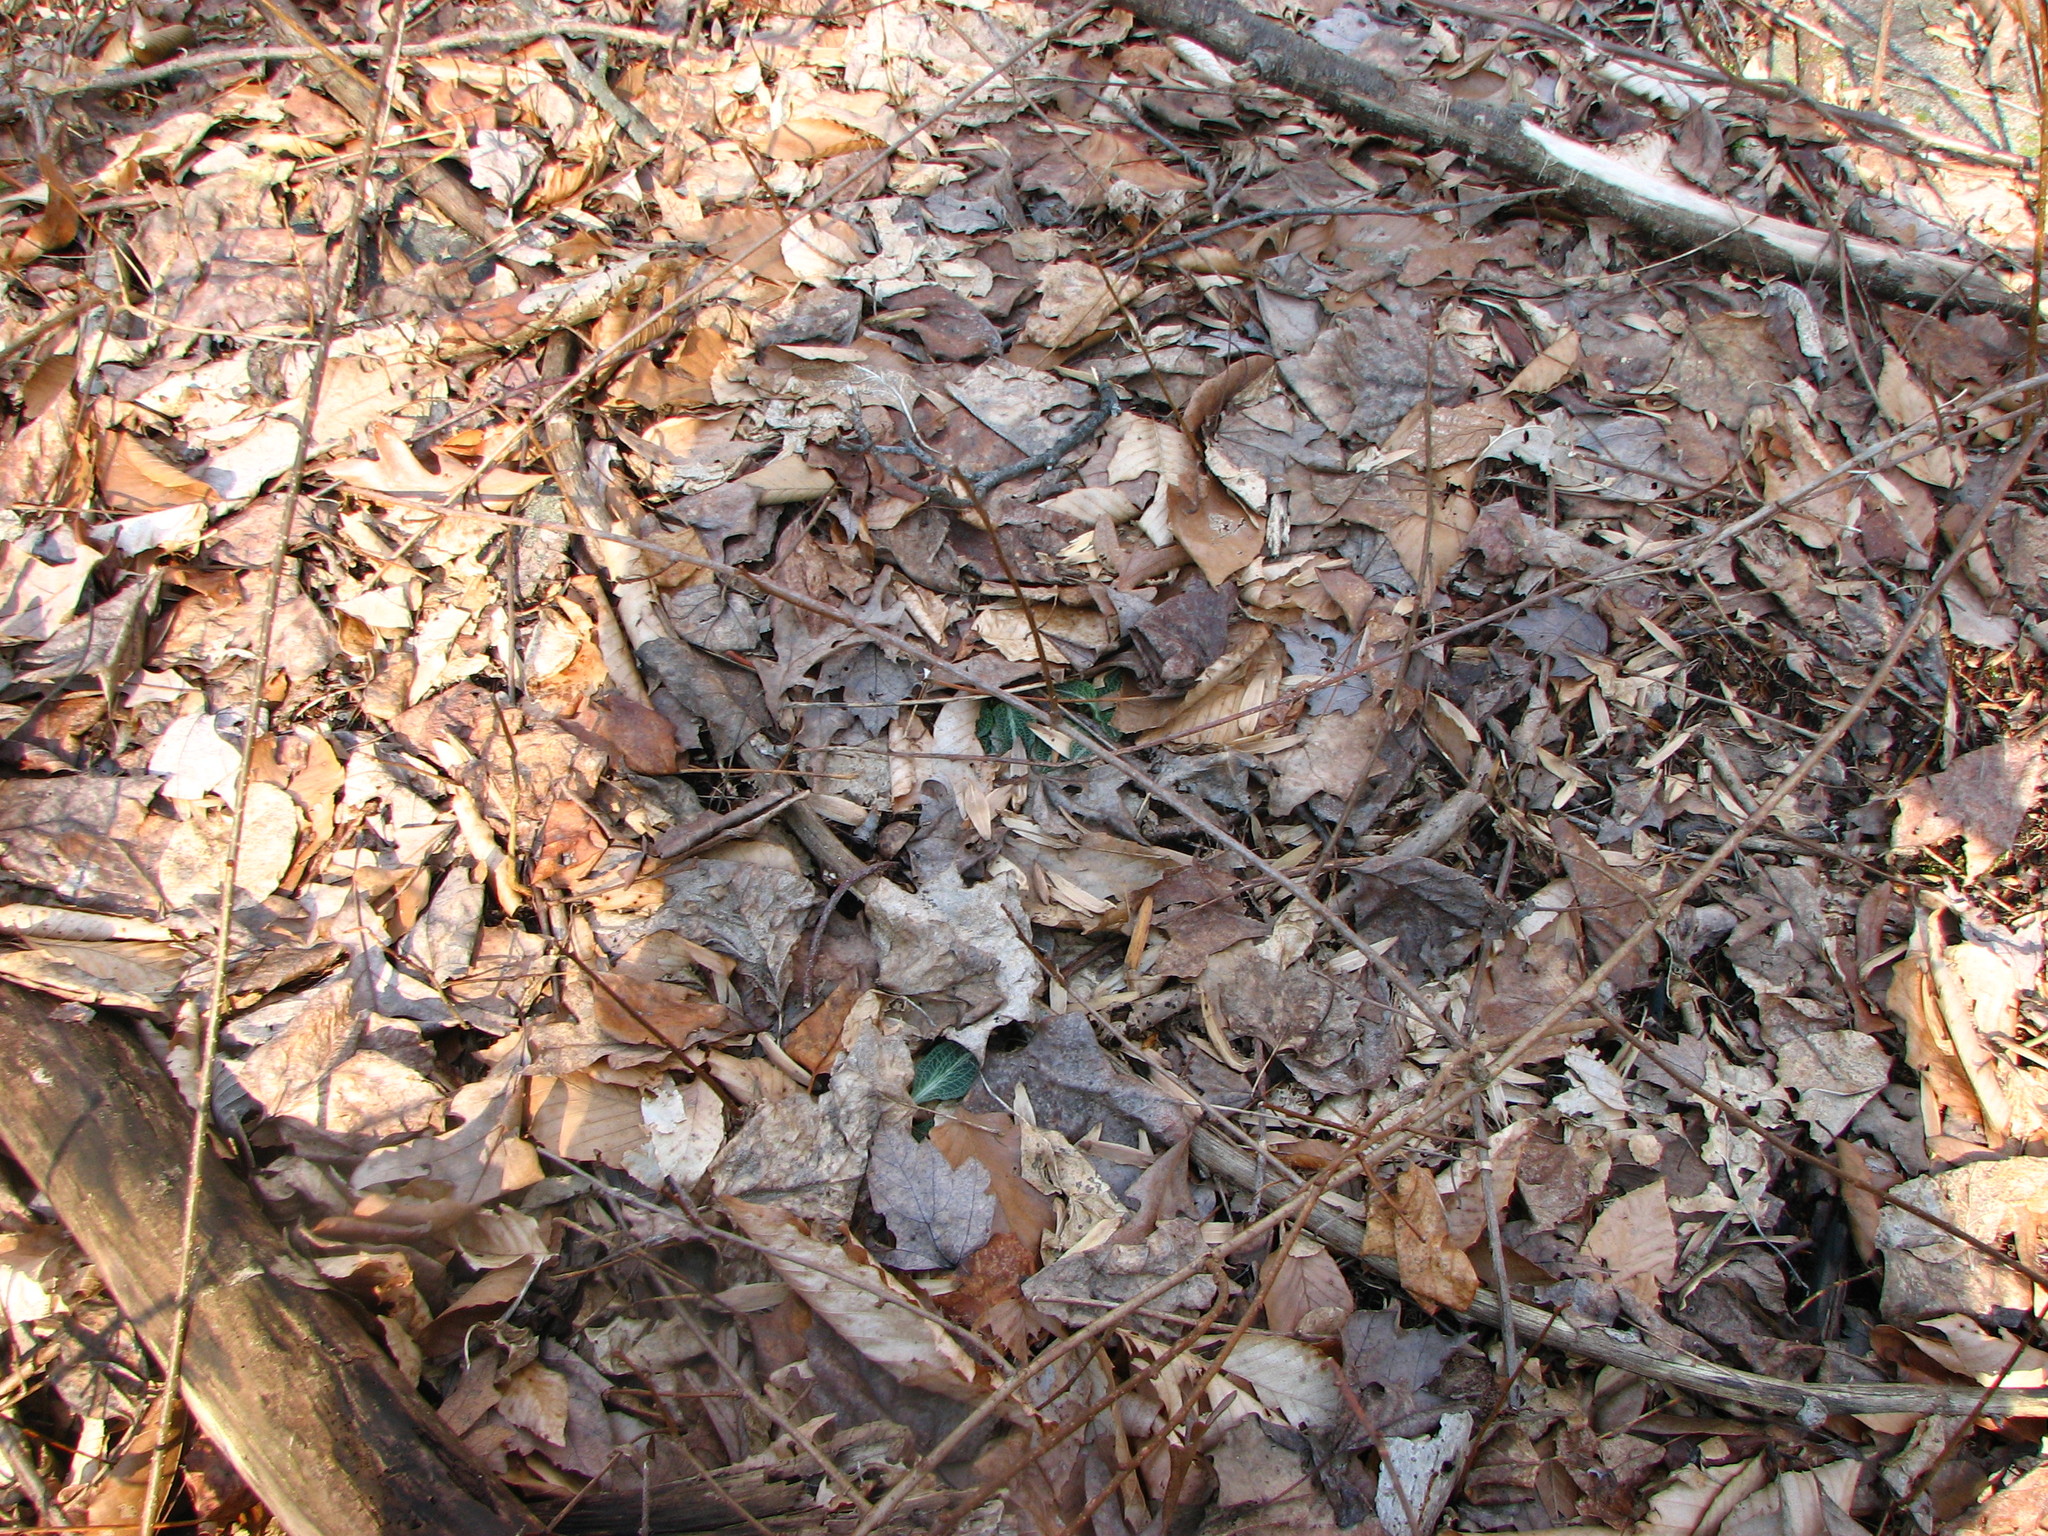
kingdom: Plantae
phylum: Tracheophyta
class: Liliopsida
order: Asparagales
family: Orchidaceae
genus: Goodyera
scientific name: Goodyera pubescens
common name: Downy rattlesnake-plantain
